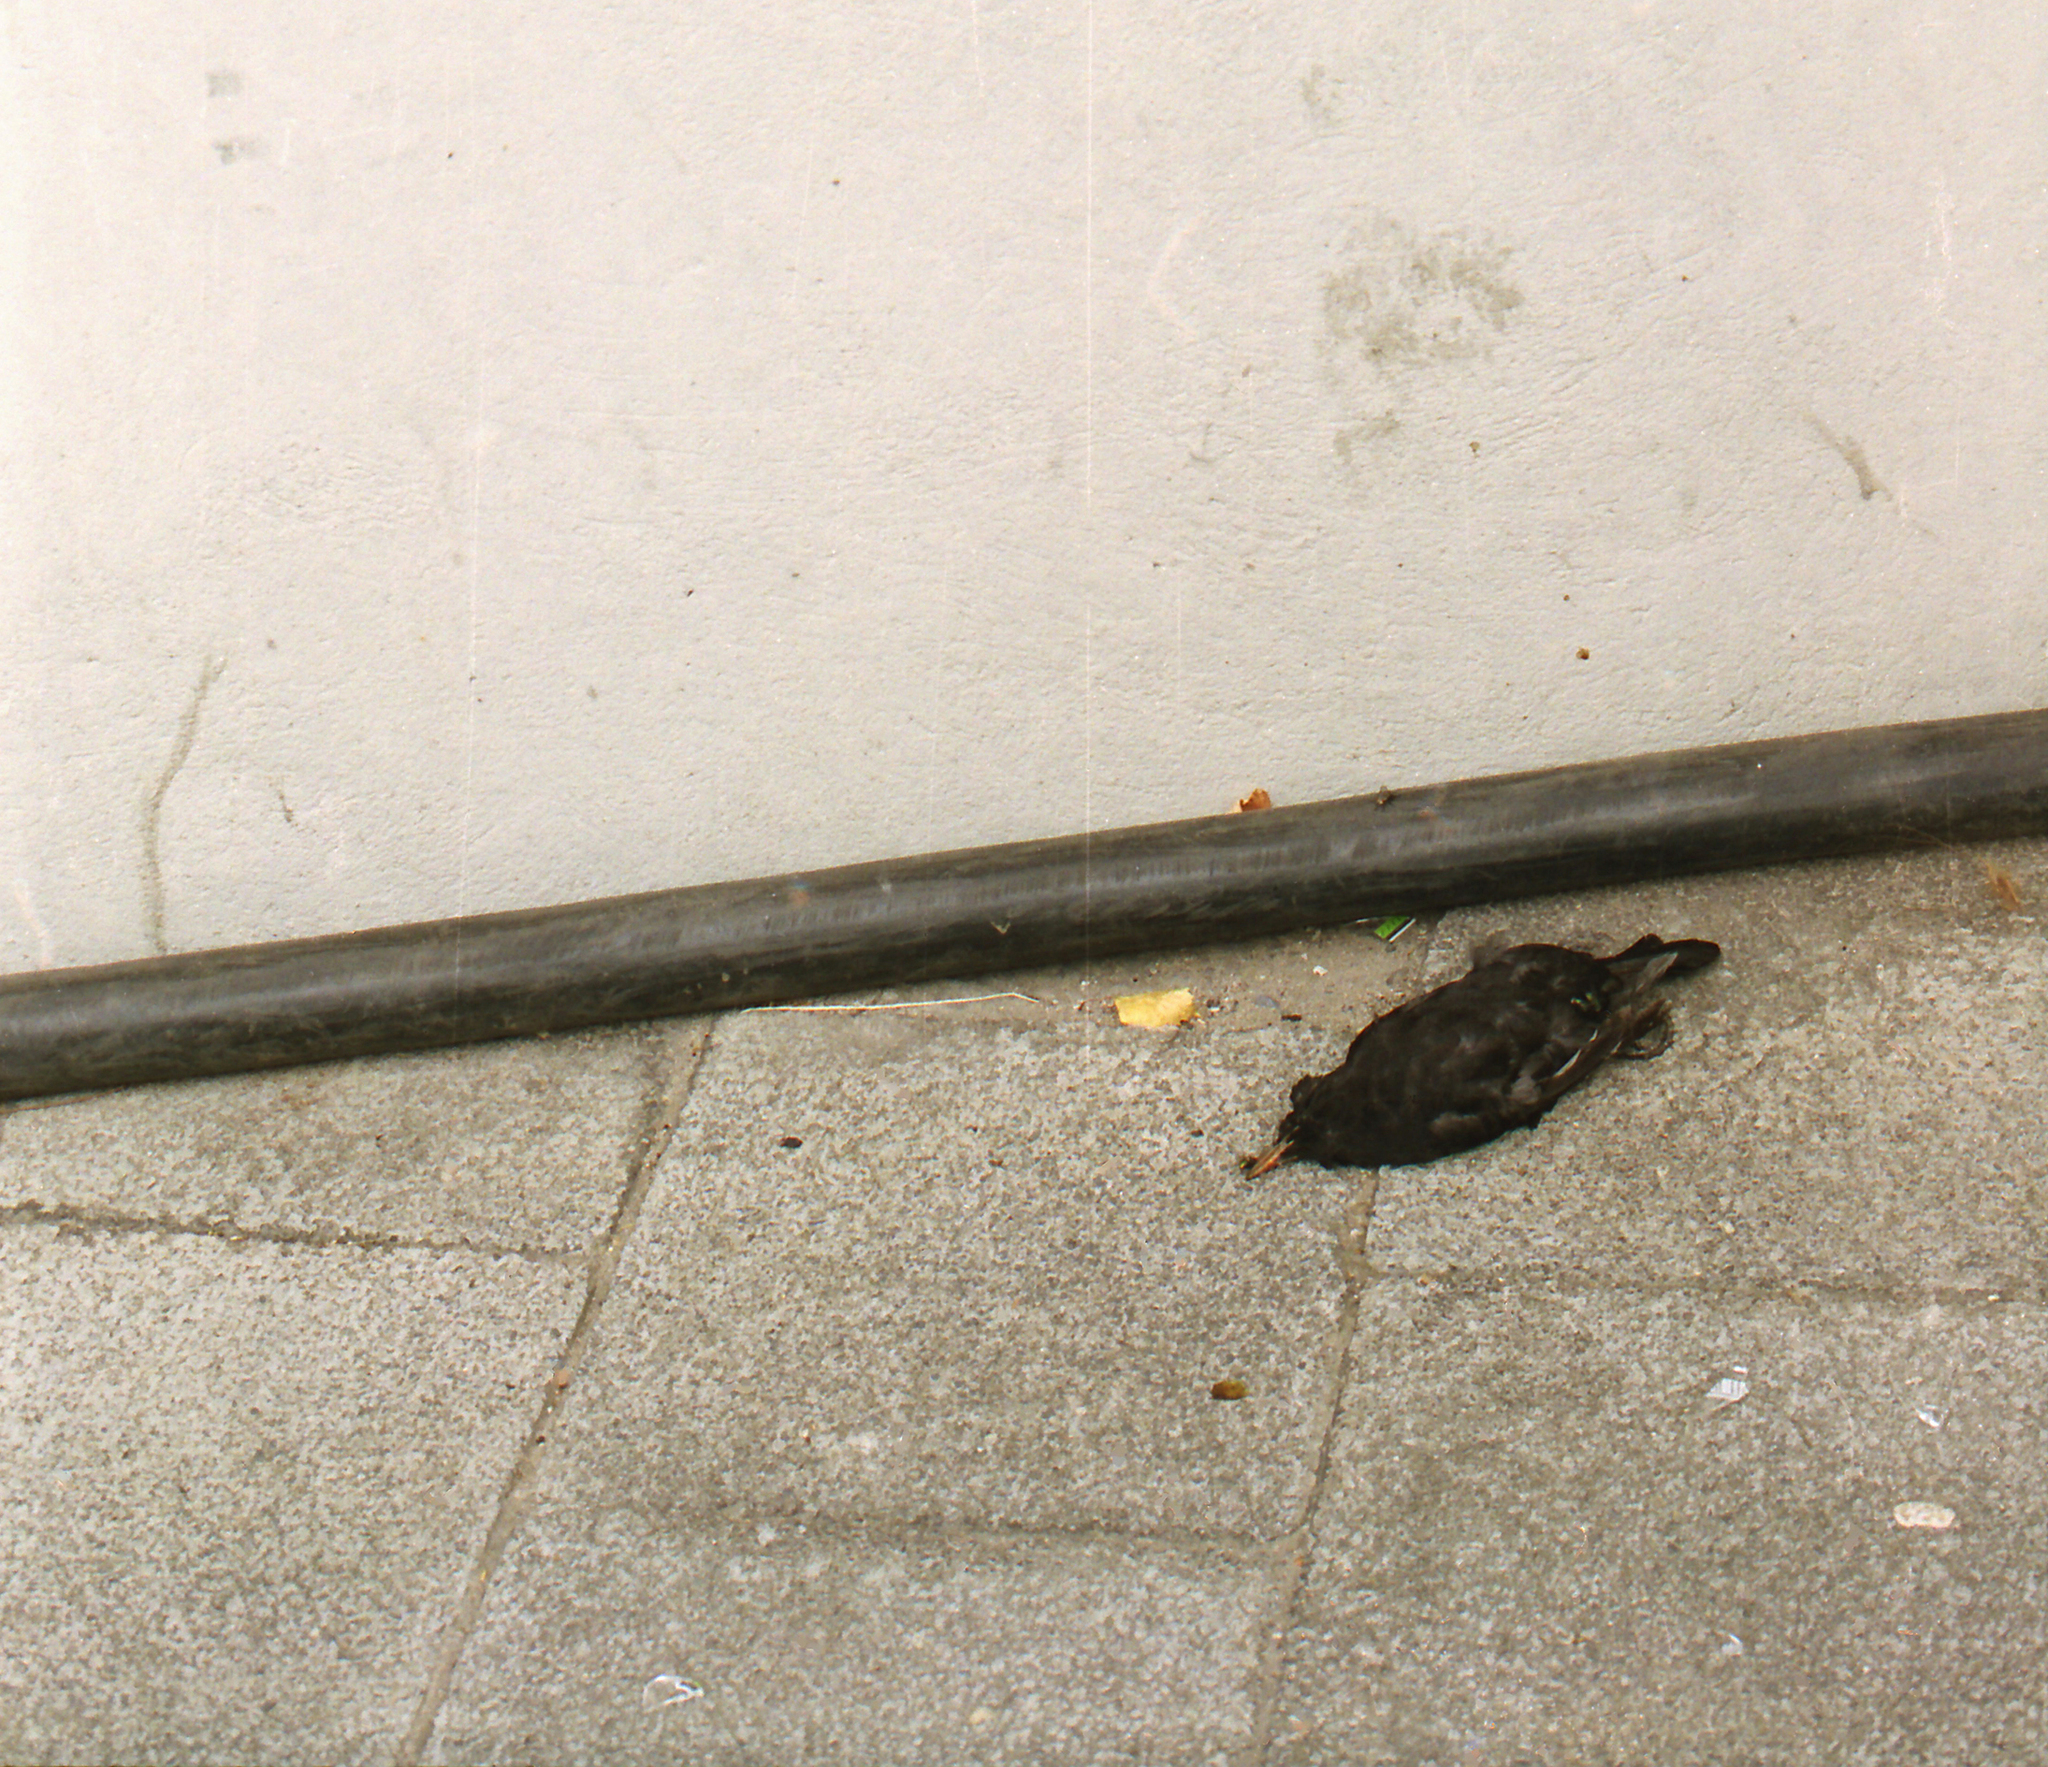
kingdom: Animalia
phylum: Chordata
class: Aves
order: Passeriformes
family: Turdidae
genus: Turdus
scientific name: Turdus merula
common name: Common blackbird
